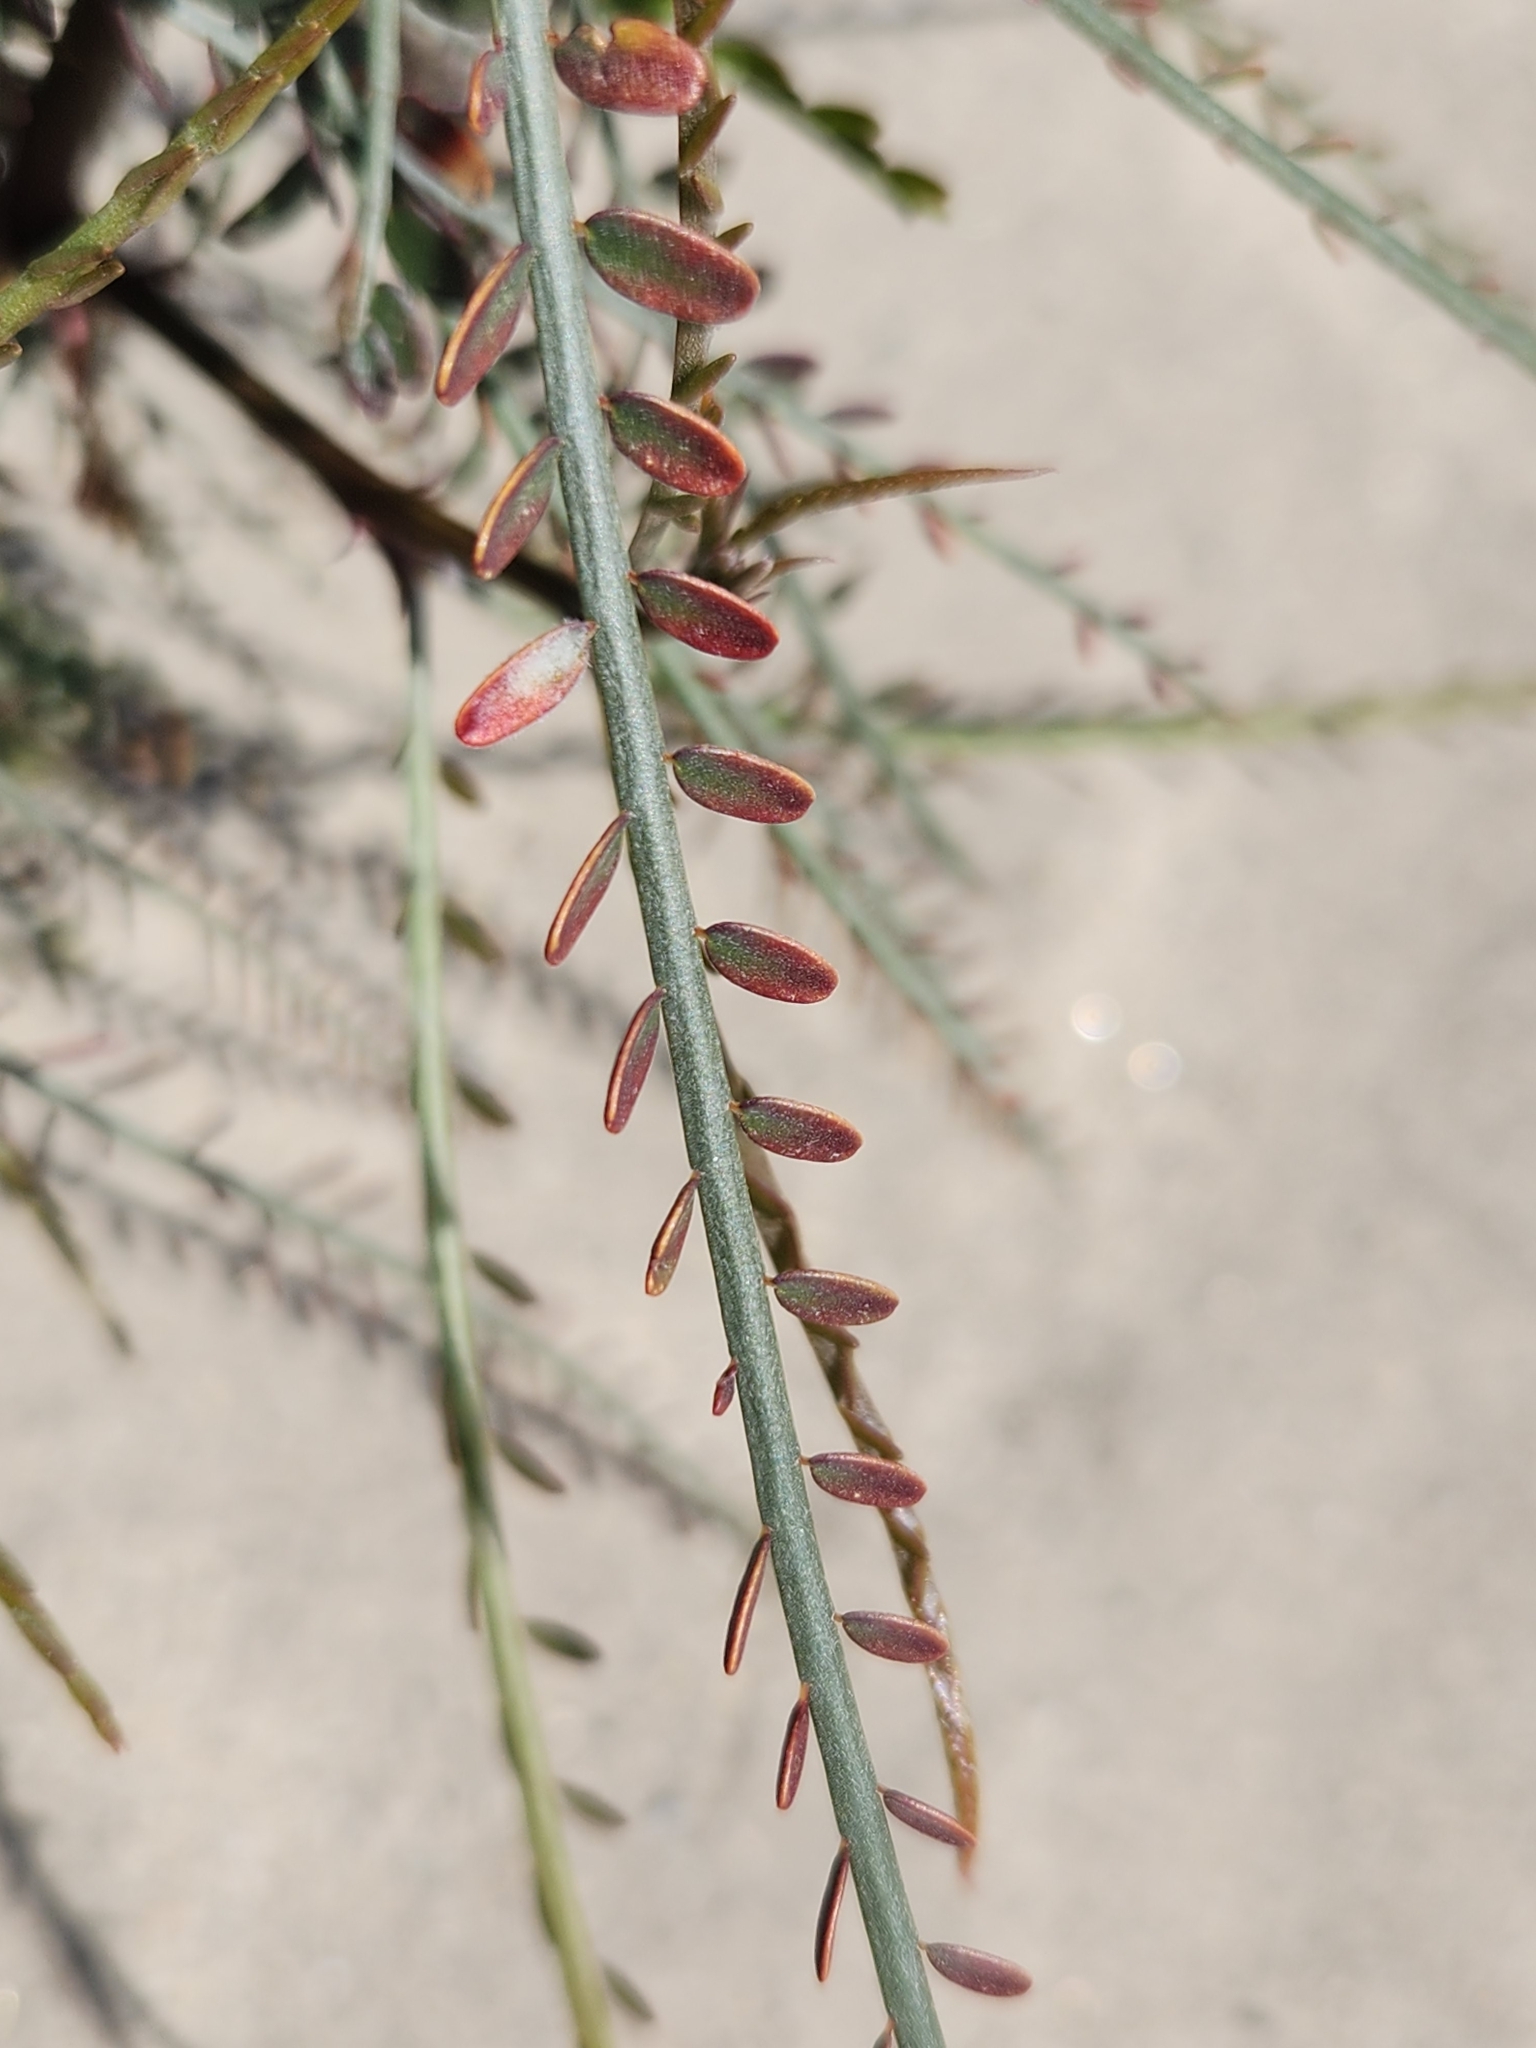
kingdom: Plantae
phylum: Tracheophyta
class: Magnoliopsida
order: Fabales
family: Fabaceae
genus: Parkinsonia
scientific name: Parkinsonia aculeata
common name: Jerusalem thorn
